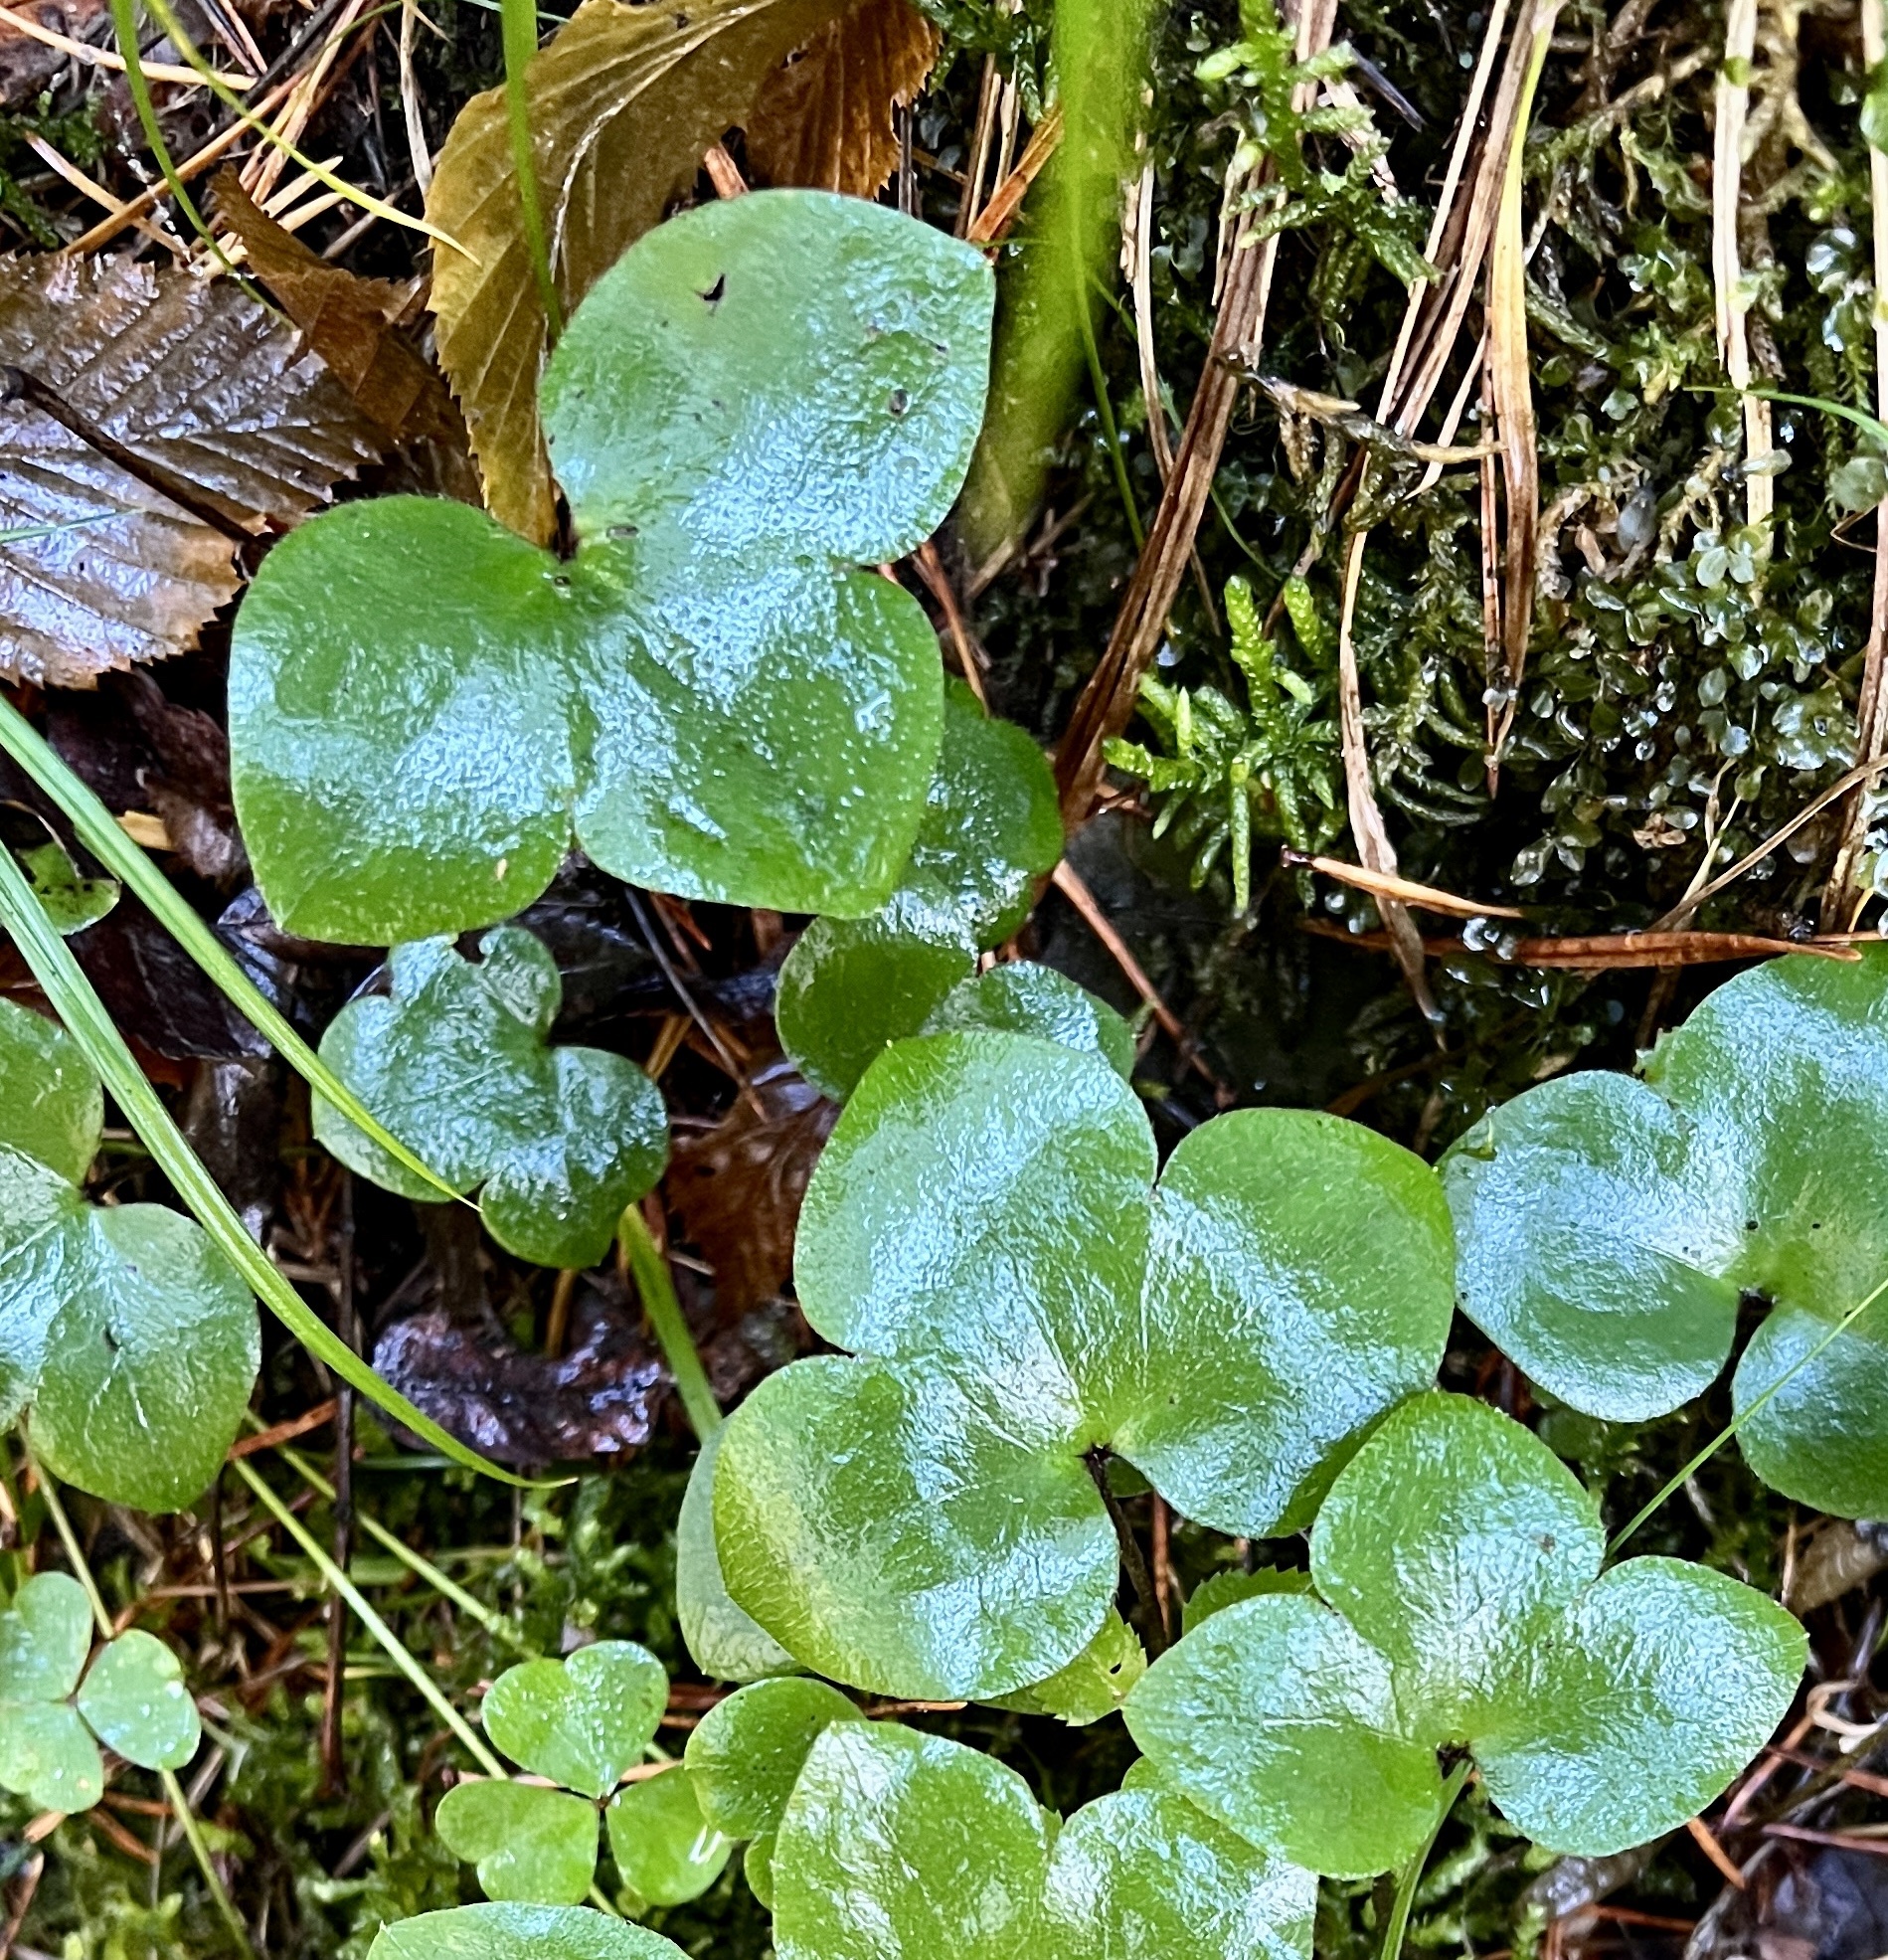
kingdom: Plantae
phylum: Tracheophyta
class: Magnoliopsida
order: Ranunculales
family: Ranunculaceae
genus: Hepatica
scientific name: Hepatica nobilis
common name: Liverleaf
